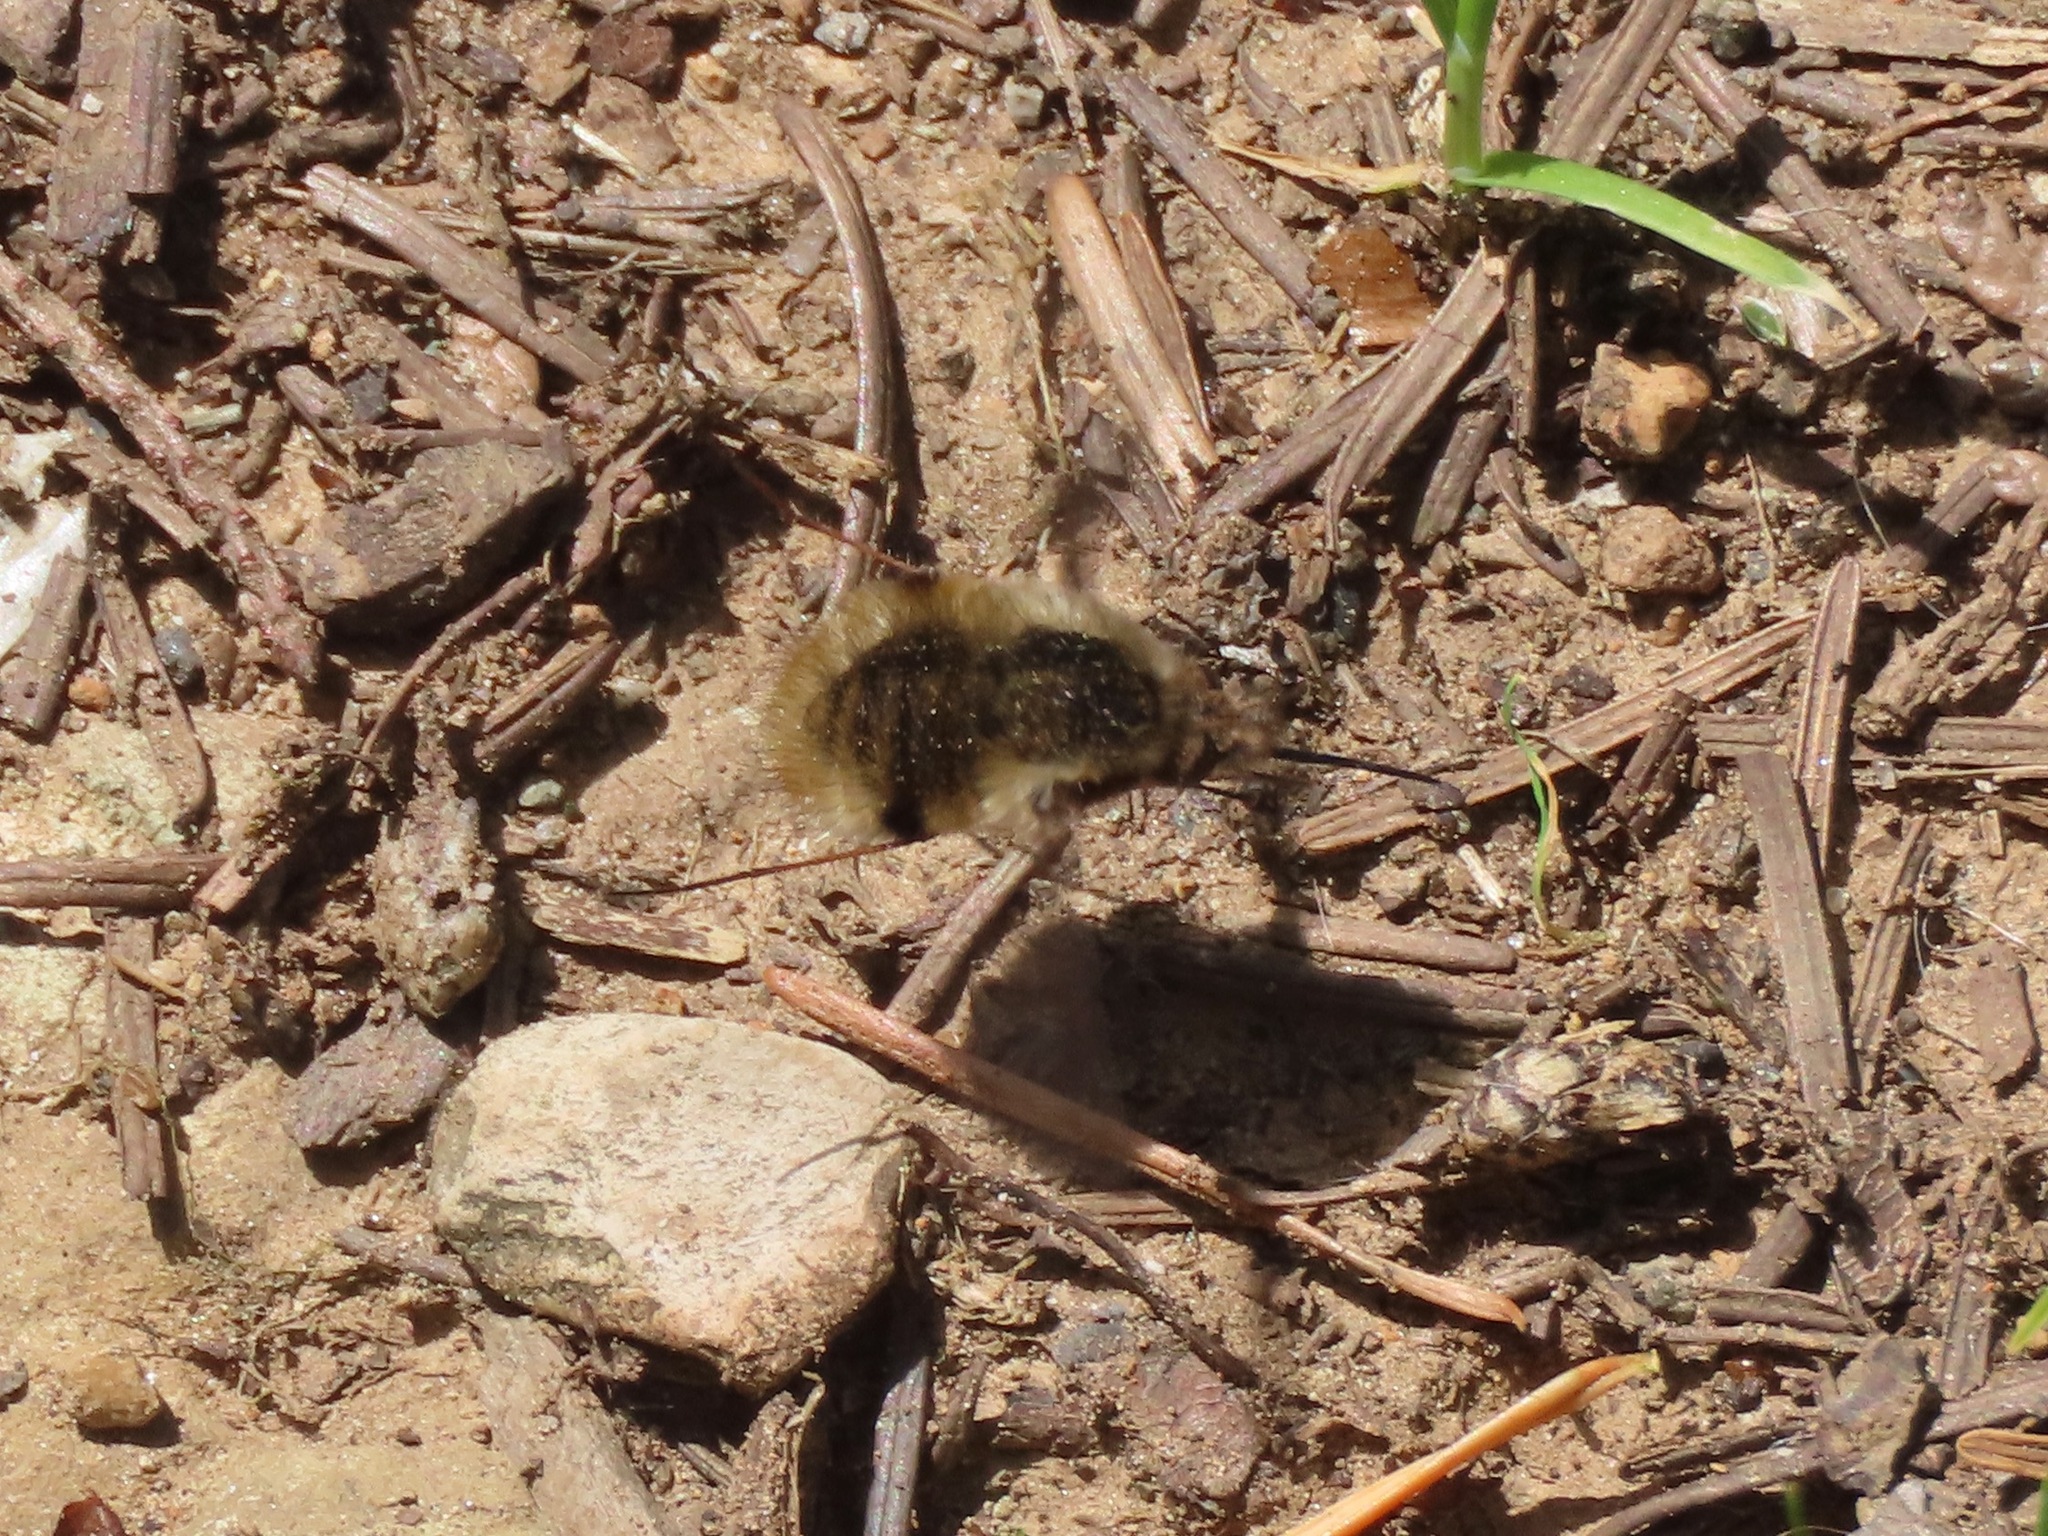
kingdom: Animalia
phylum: Arthropoda
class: Insecta
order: Diptera
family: Bombyliidae
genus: Bombylius
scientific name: Bombylius major
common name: Bee fly
